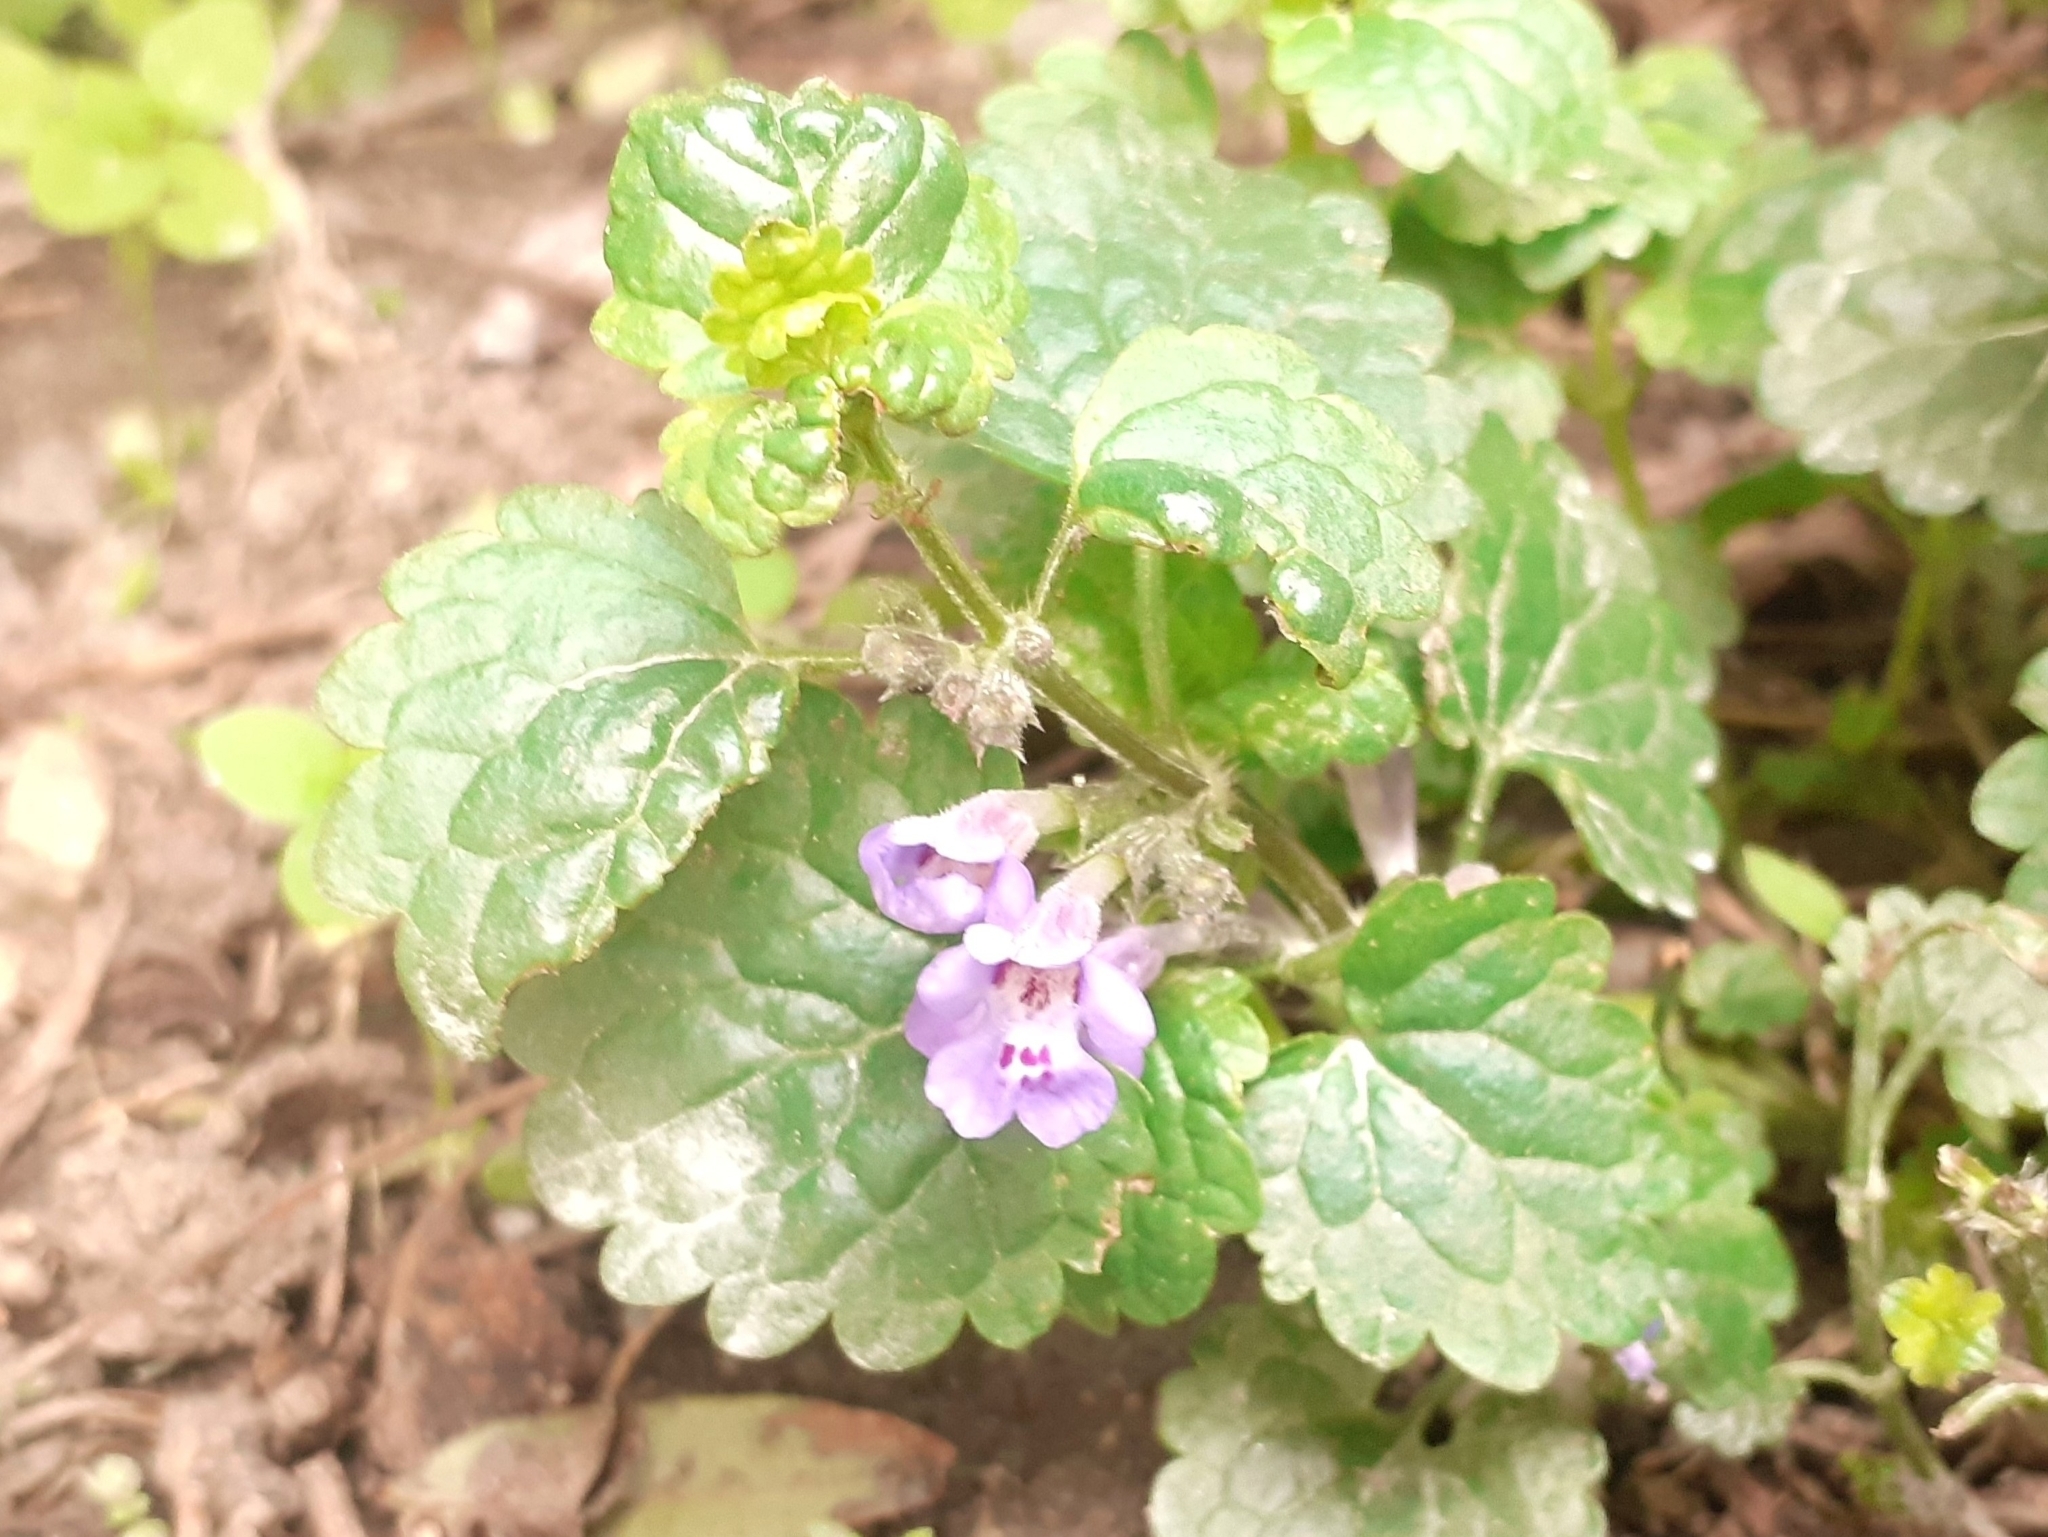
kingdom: Plantae
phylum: Tracheophyta
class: Magnoliopsida
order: Lamiales
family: Lamiaceae
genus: Glechoma
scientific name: Glechoma hederacea
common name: Ground ivy
